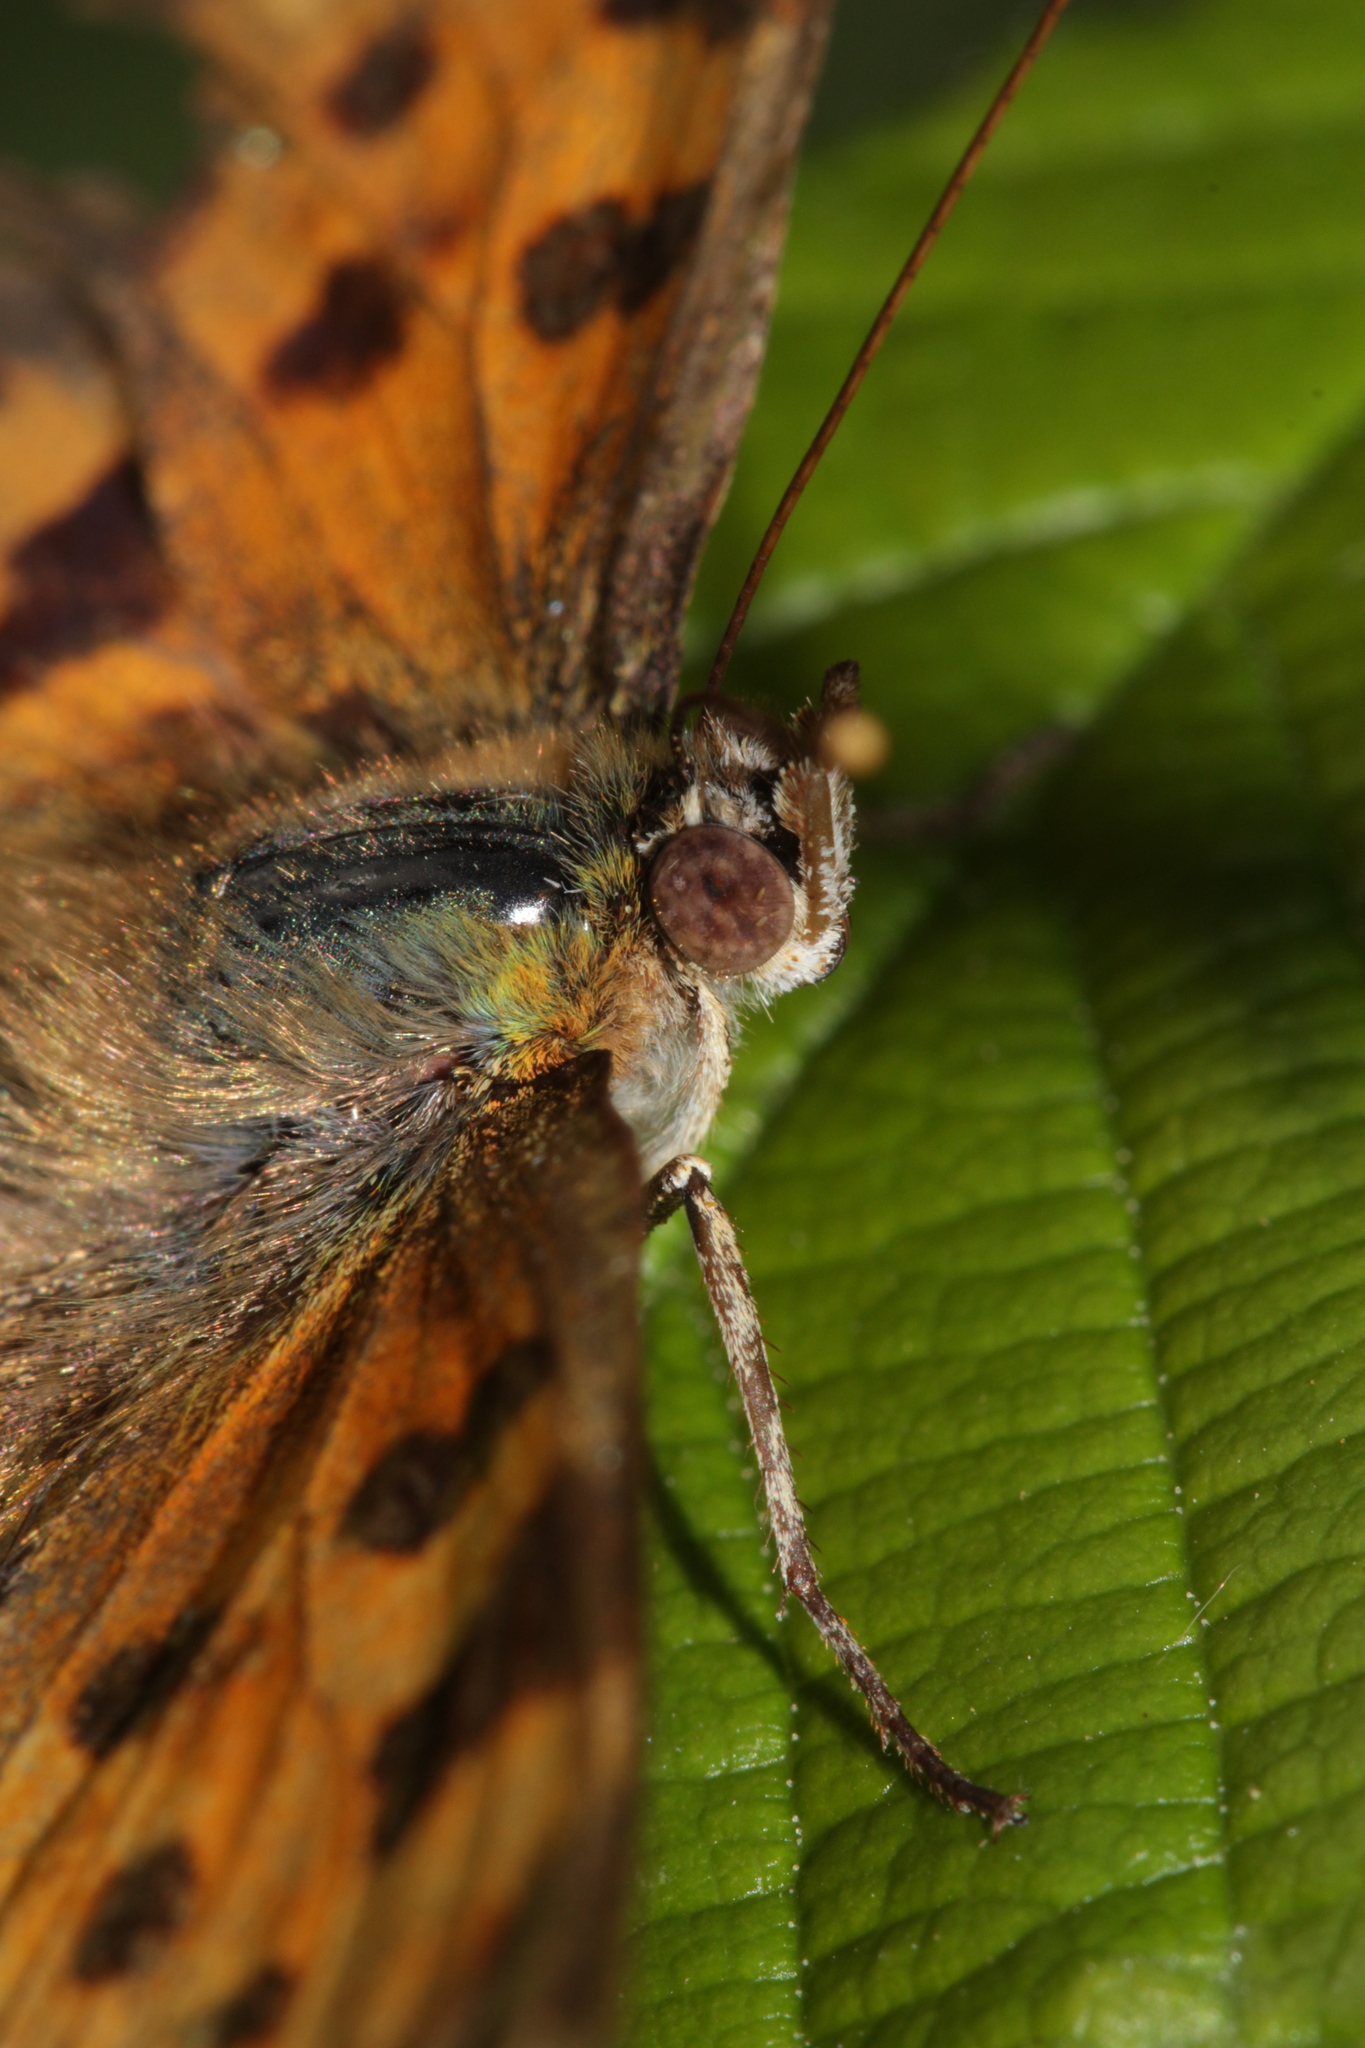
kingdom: Animalia
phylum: Arthropoda
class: Insecta
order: Lepidoptera
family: Nymphalidae
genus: Polygonia
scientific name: Polygonia c-album
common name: Comma
